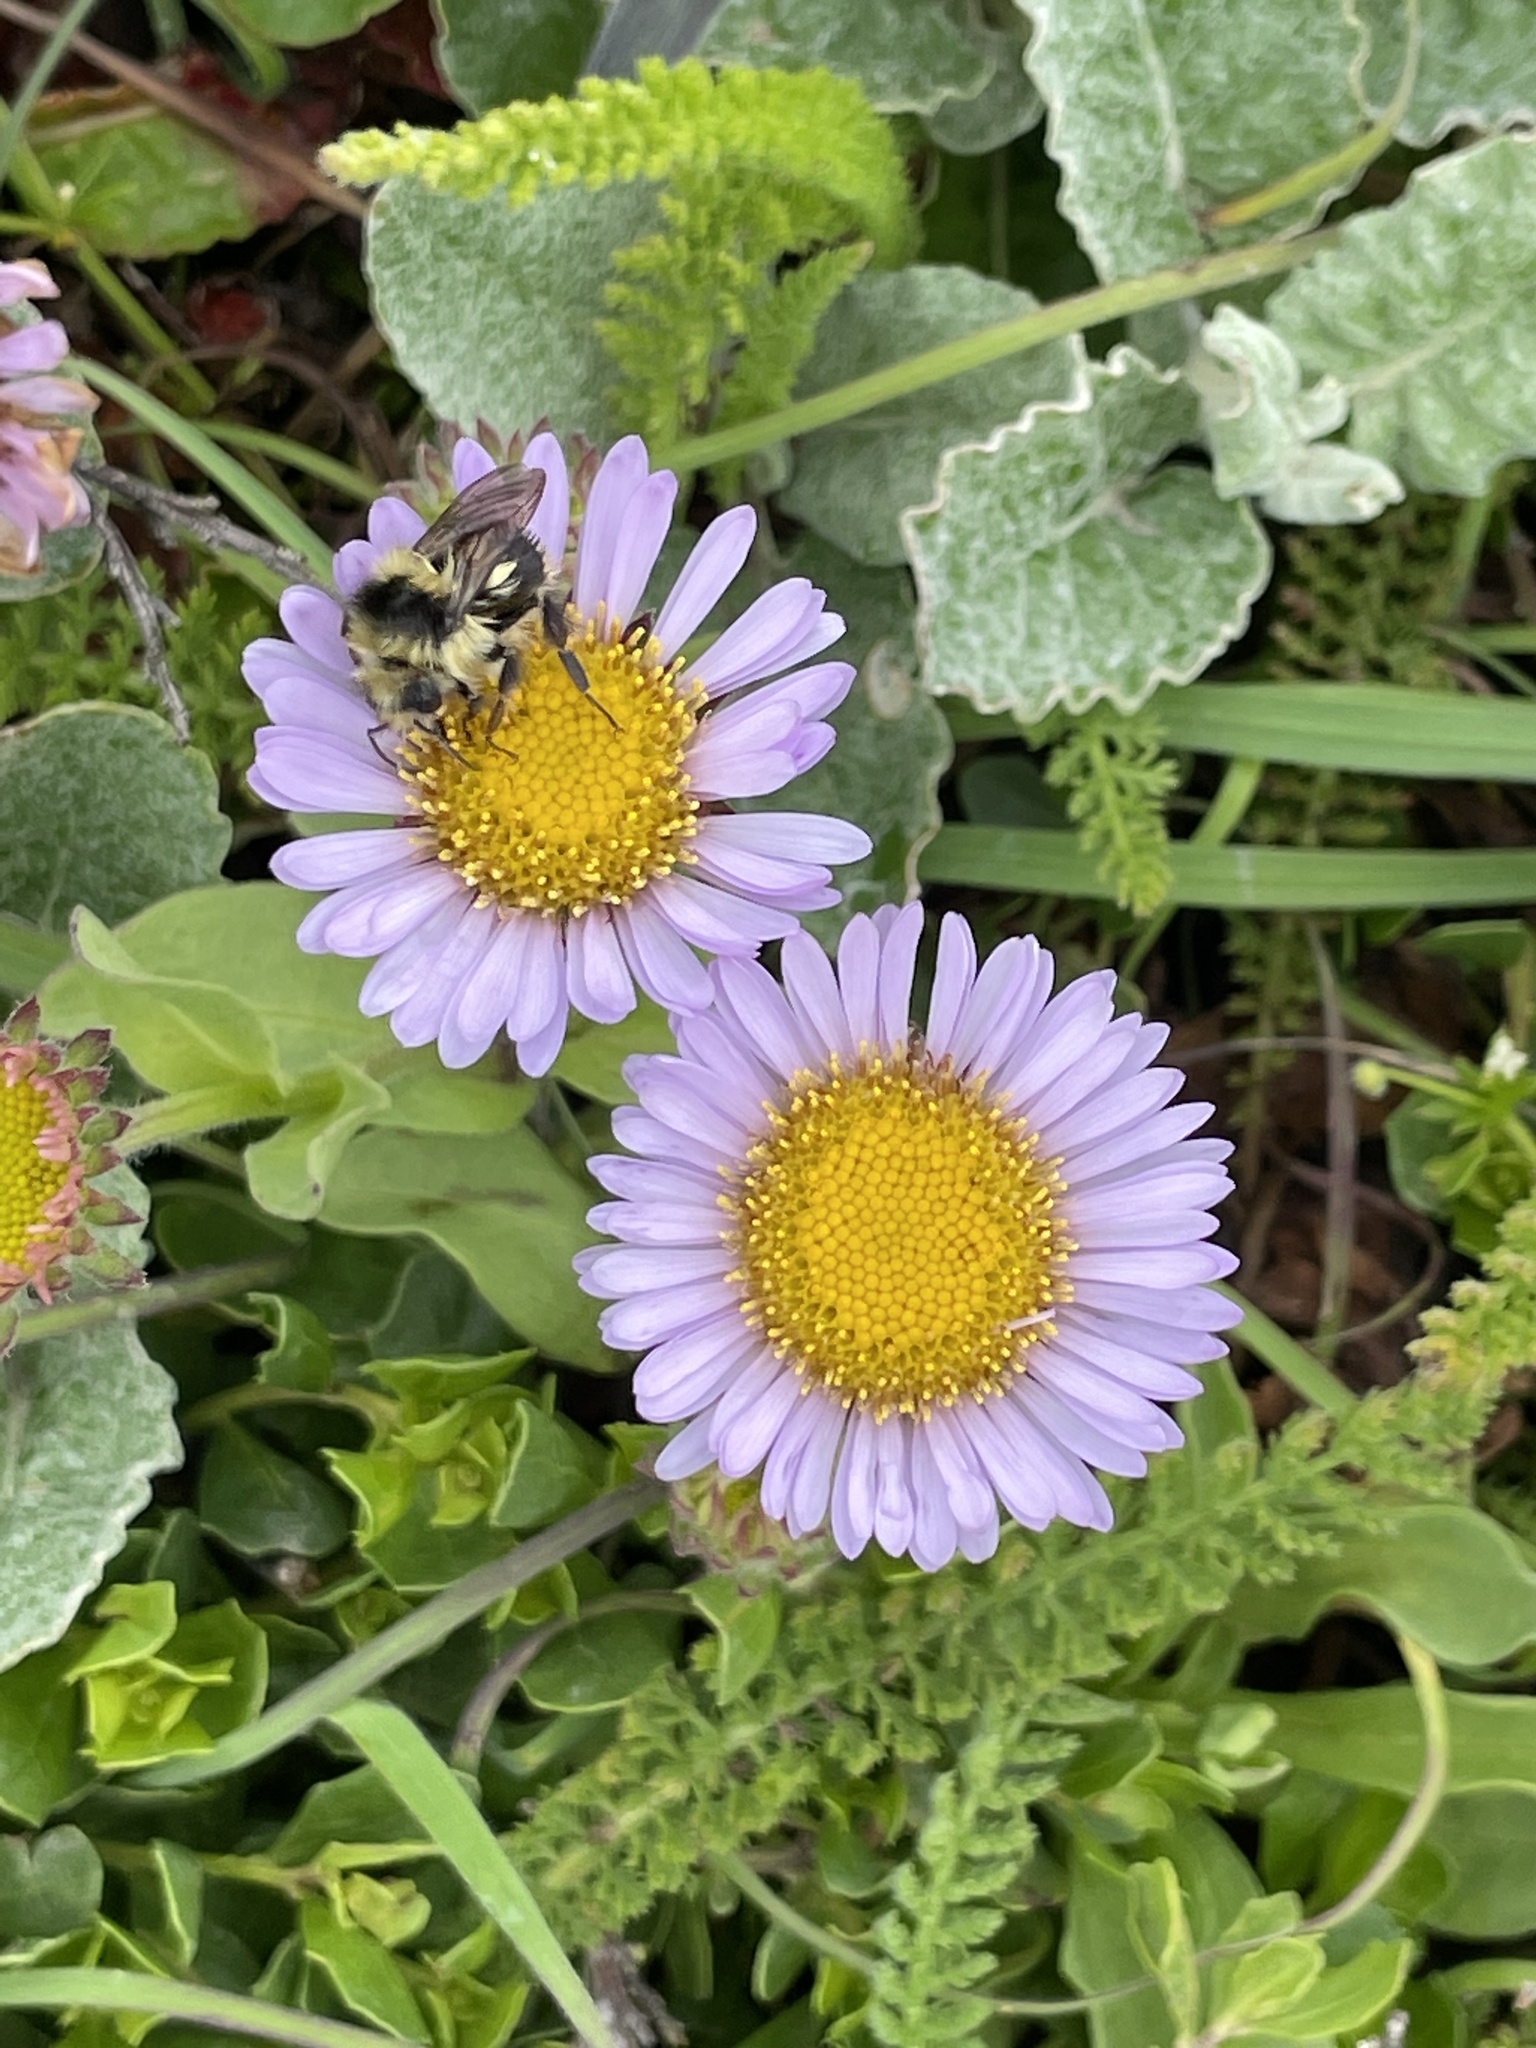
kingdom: Plantae
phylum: Tracheophyta
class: Magnoliopsida
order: Asterales
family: Asteraceae
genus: Erigeron
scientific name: Erigeron glaucus
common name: Seaside daisy
